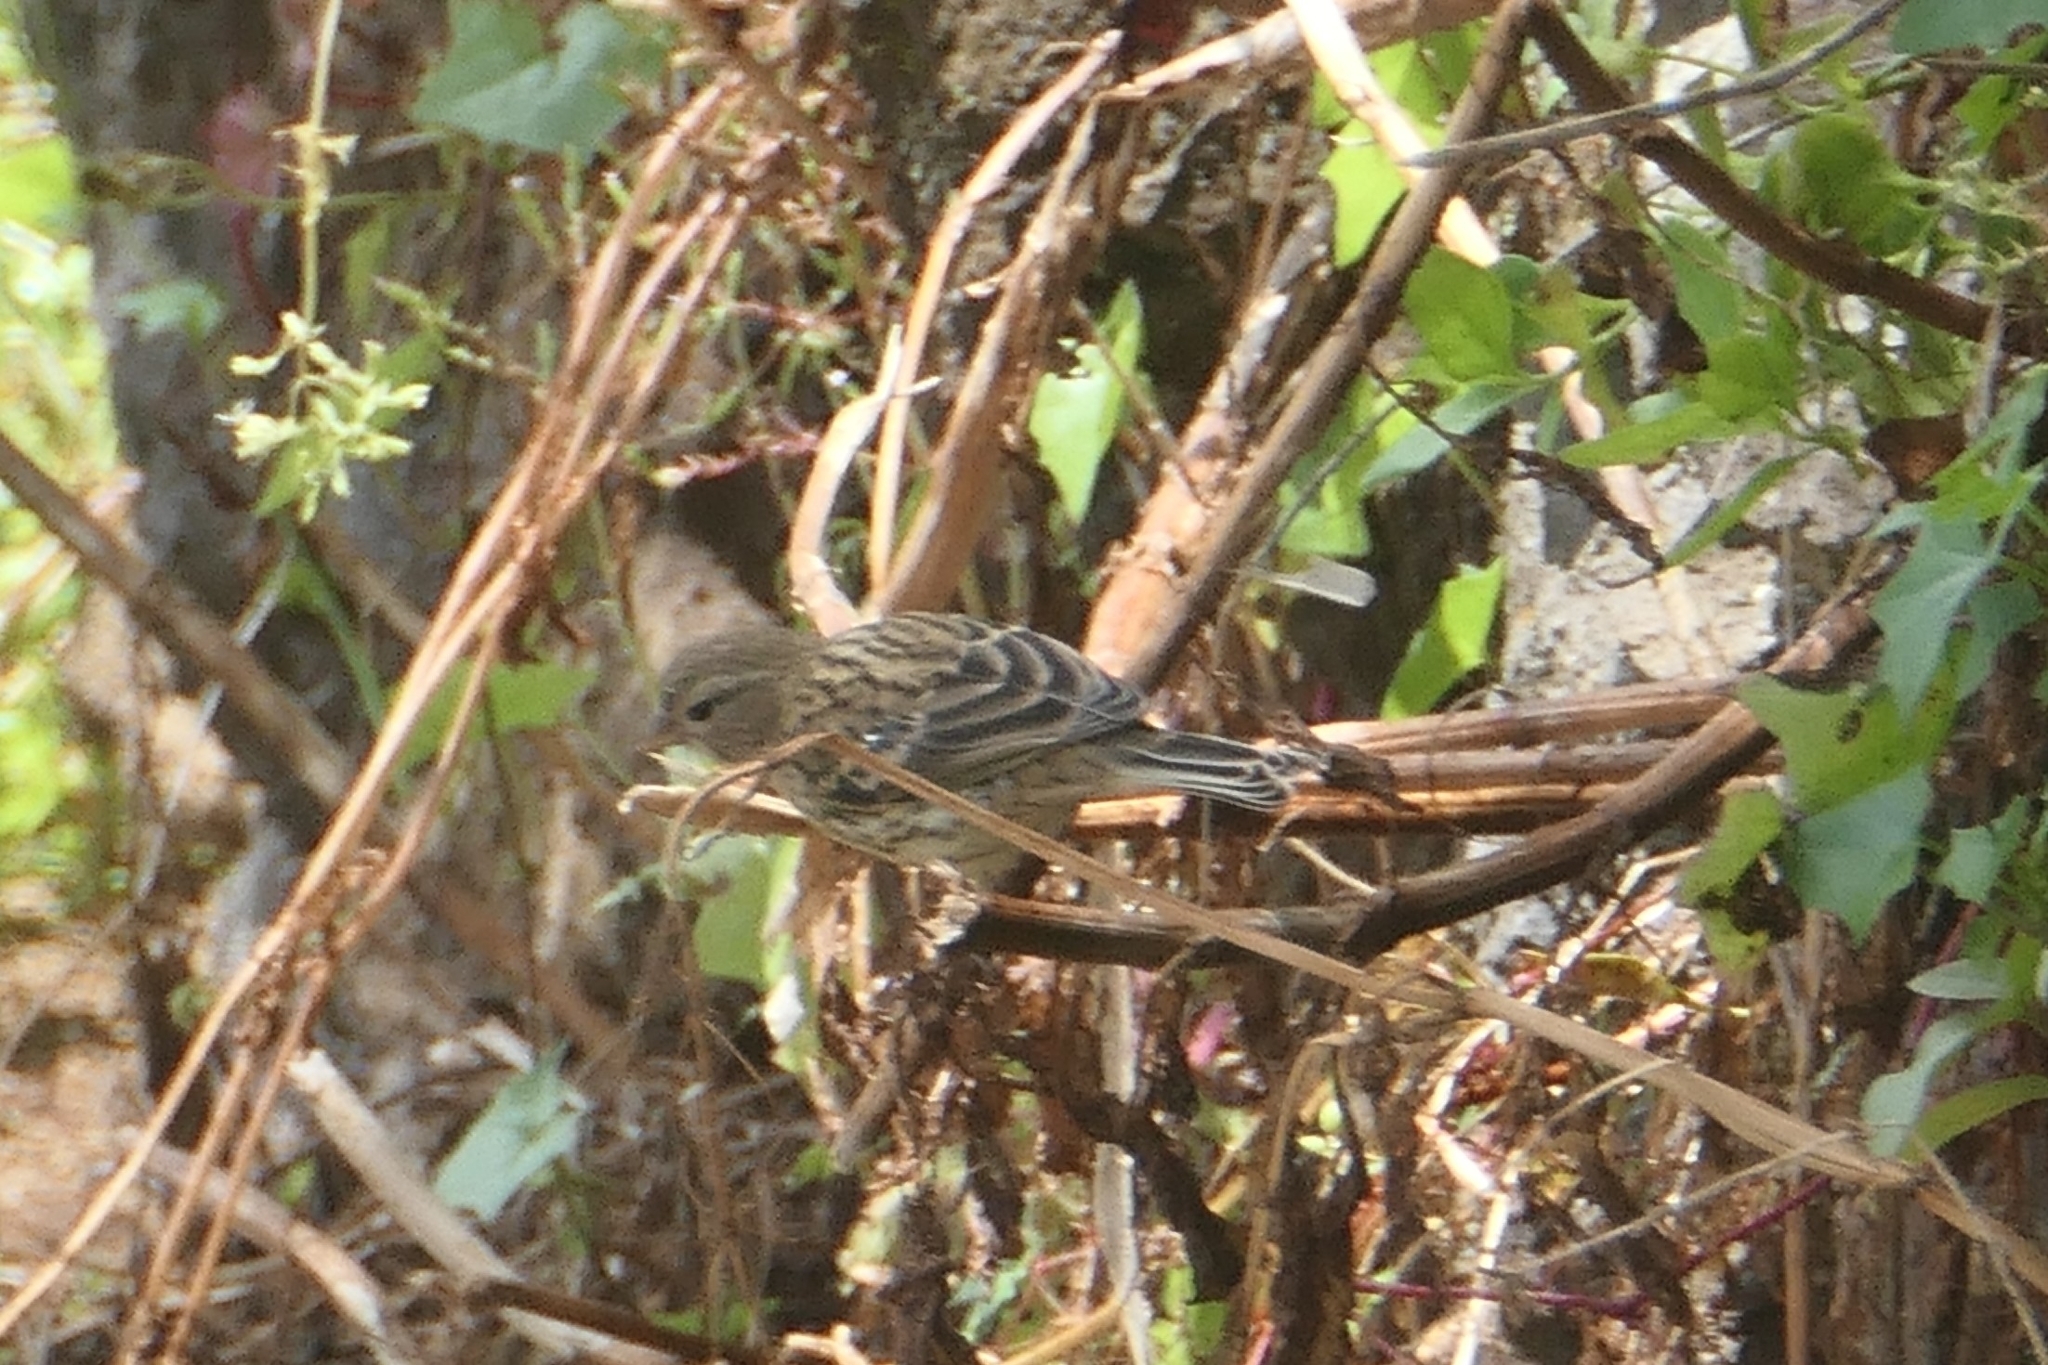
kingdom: Animalia
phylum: Chordata
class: Aves
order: Passeriformes
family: Fringillidae
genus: Serinus
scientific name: Serinus canaria
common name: Atlantic canary
